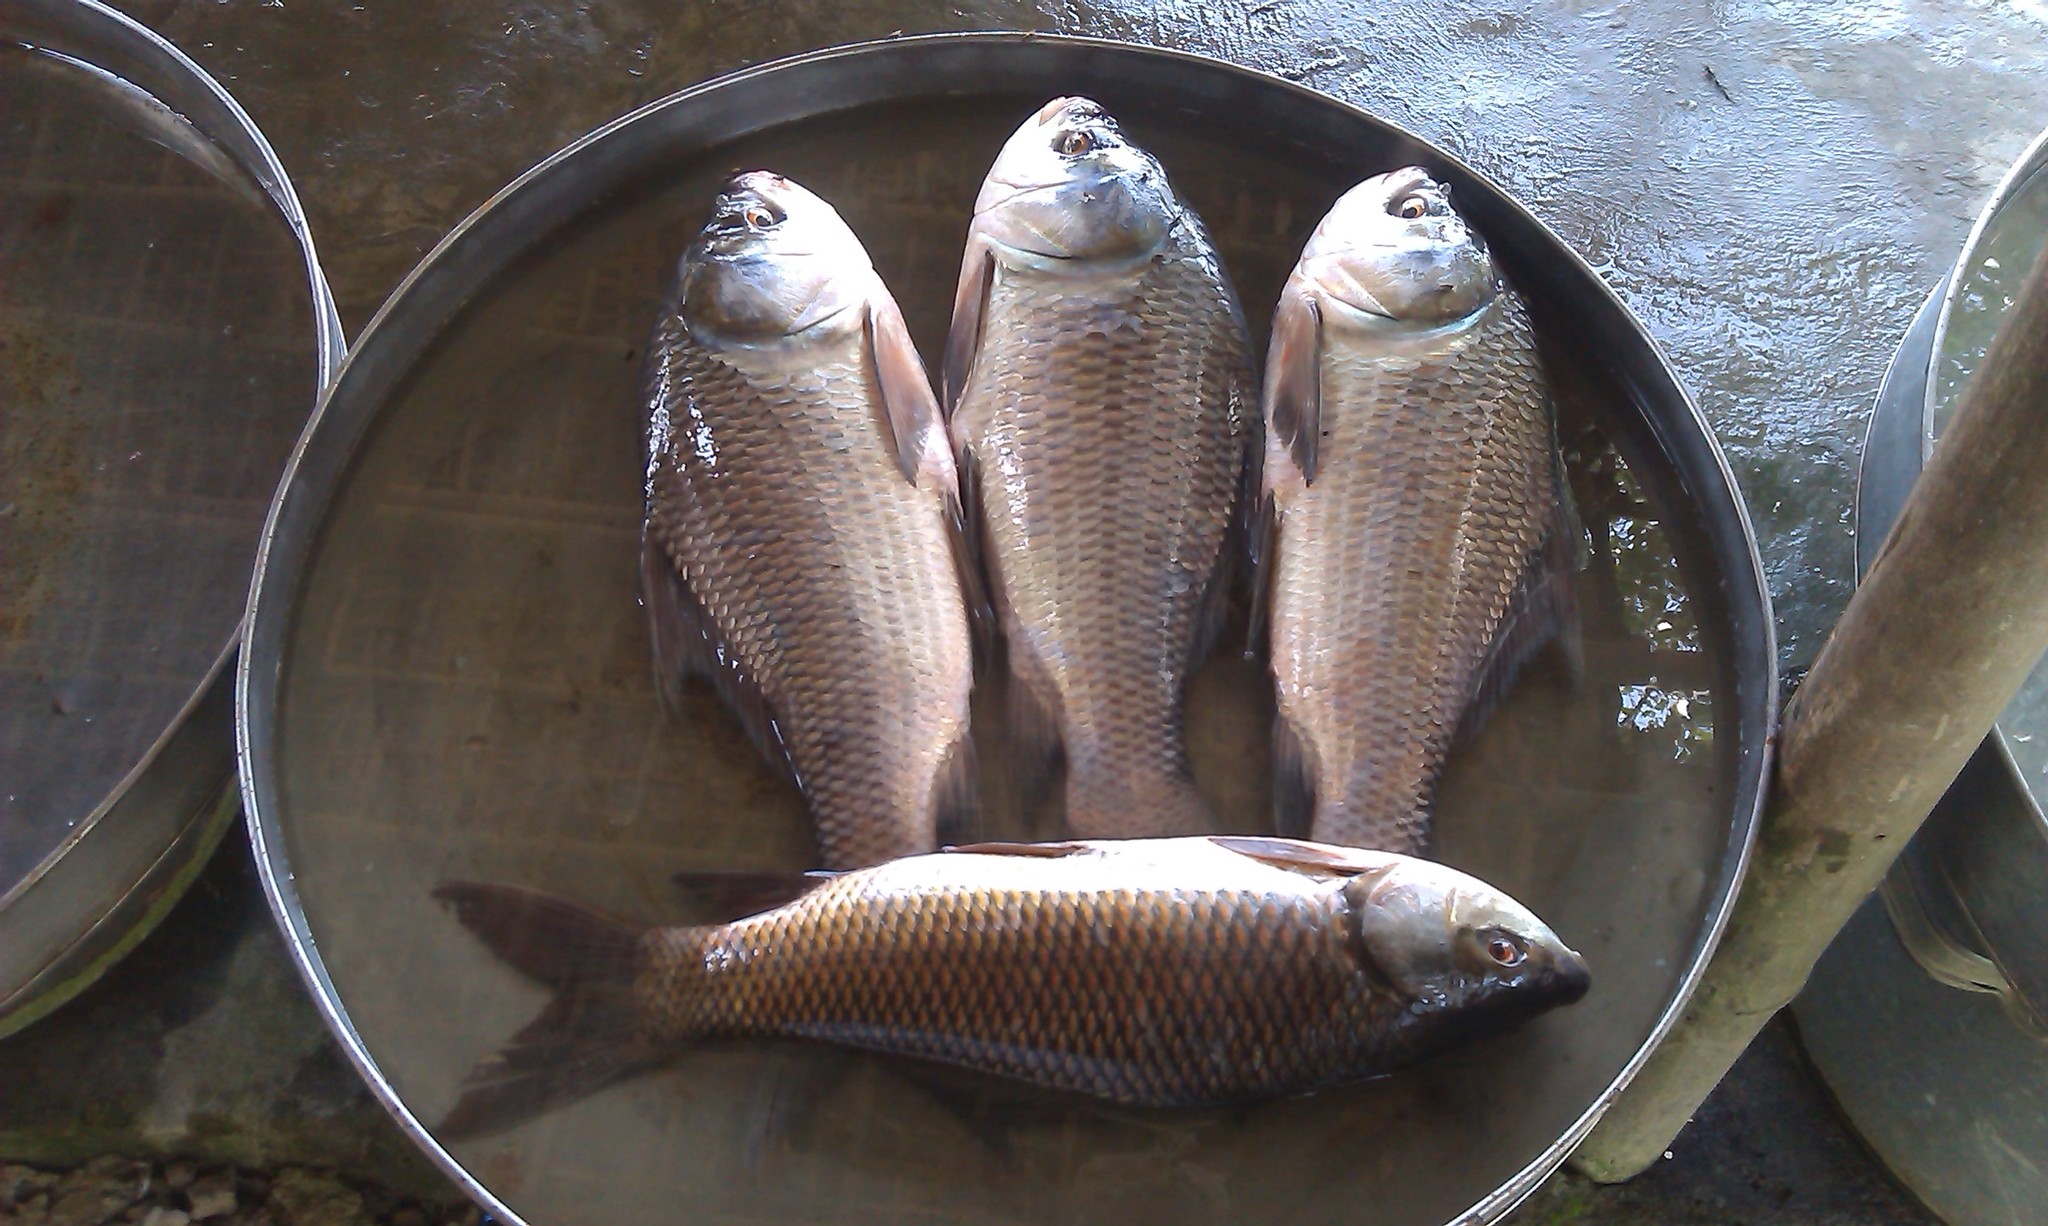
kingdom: Animalia
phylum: Chordata
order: Cypriniformes
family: Cyprinidae
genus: Gibelion
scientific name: Gibelion catla
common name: Catla
